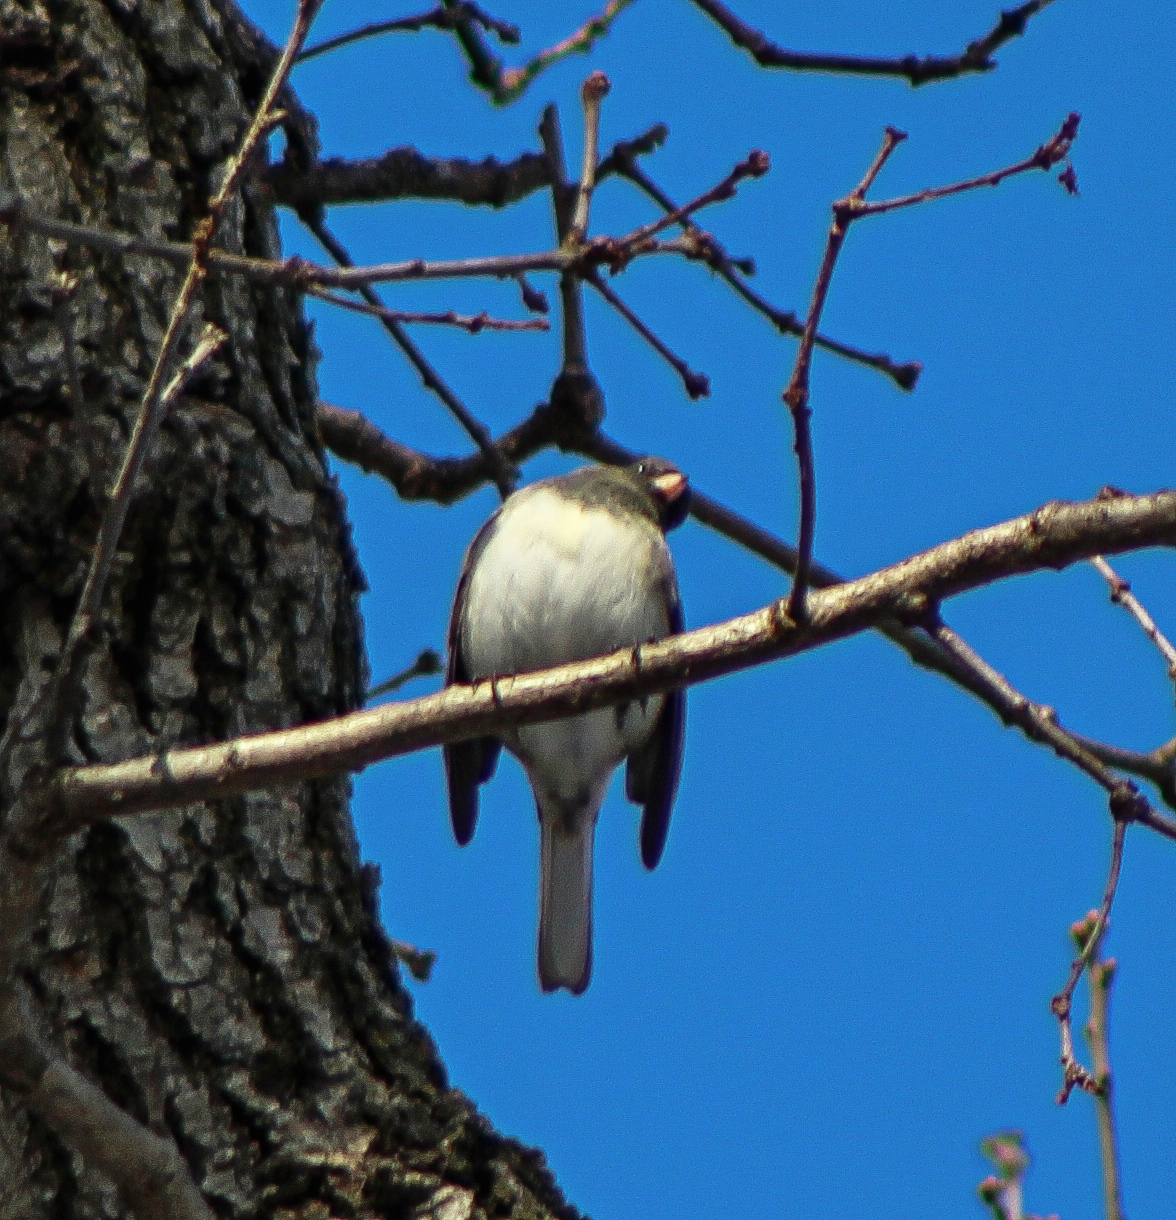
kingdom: Animalia
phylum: Chordata
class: Aves
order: Passeriformes
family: Passerellidae
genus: Junco
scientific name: Junco hyemalis
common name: Dark-eyed junco
